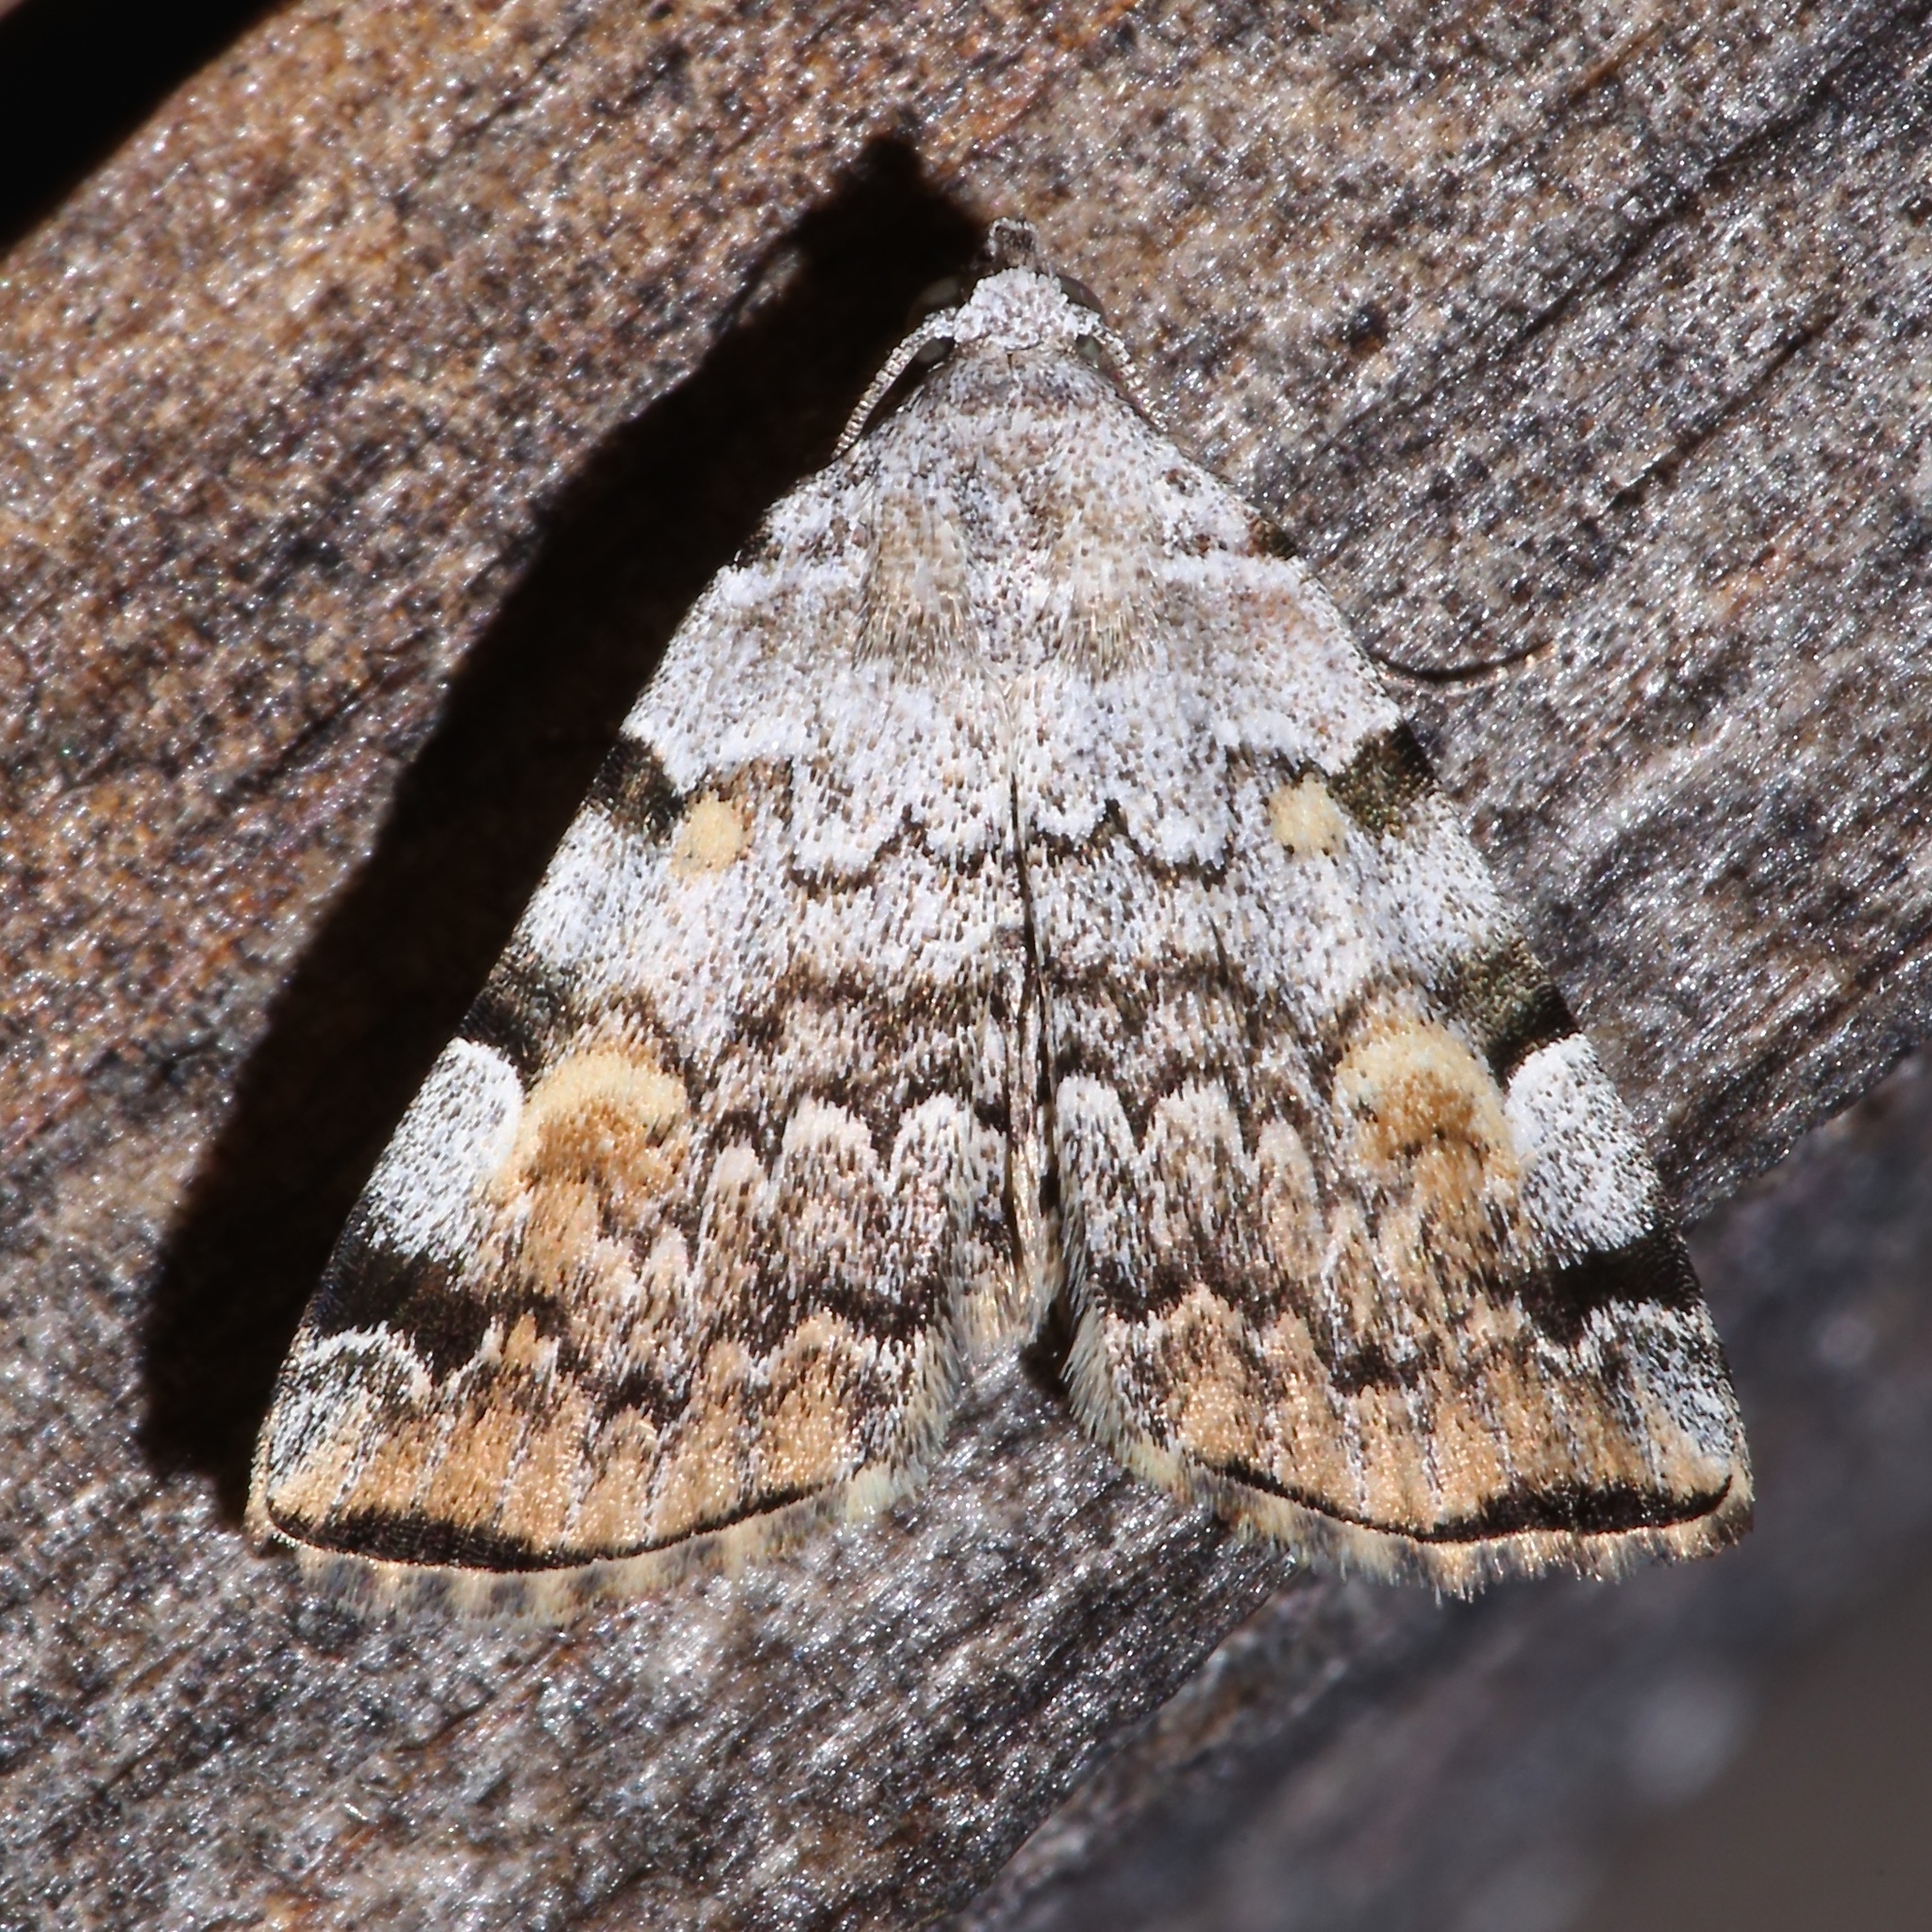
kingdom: Animalia
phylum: Arthropoda
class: Insecta
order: Lepidoptera
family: Erebidae
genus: Idia
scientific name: Idia americalis
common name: American idia moth
